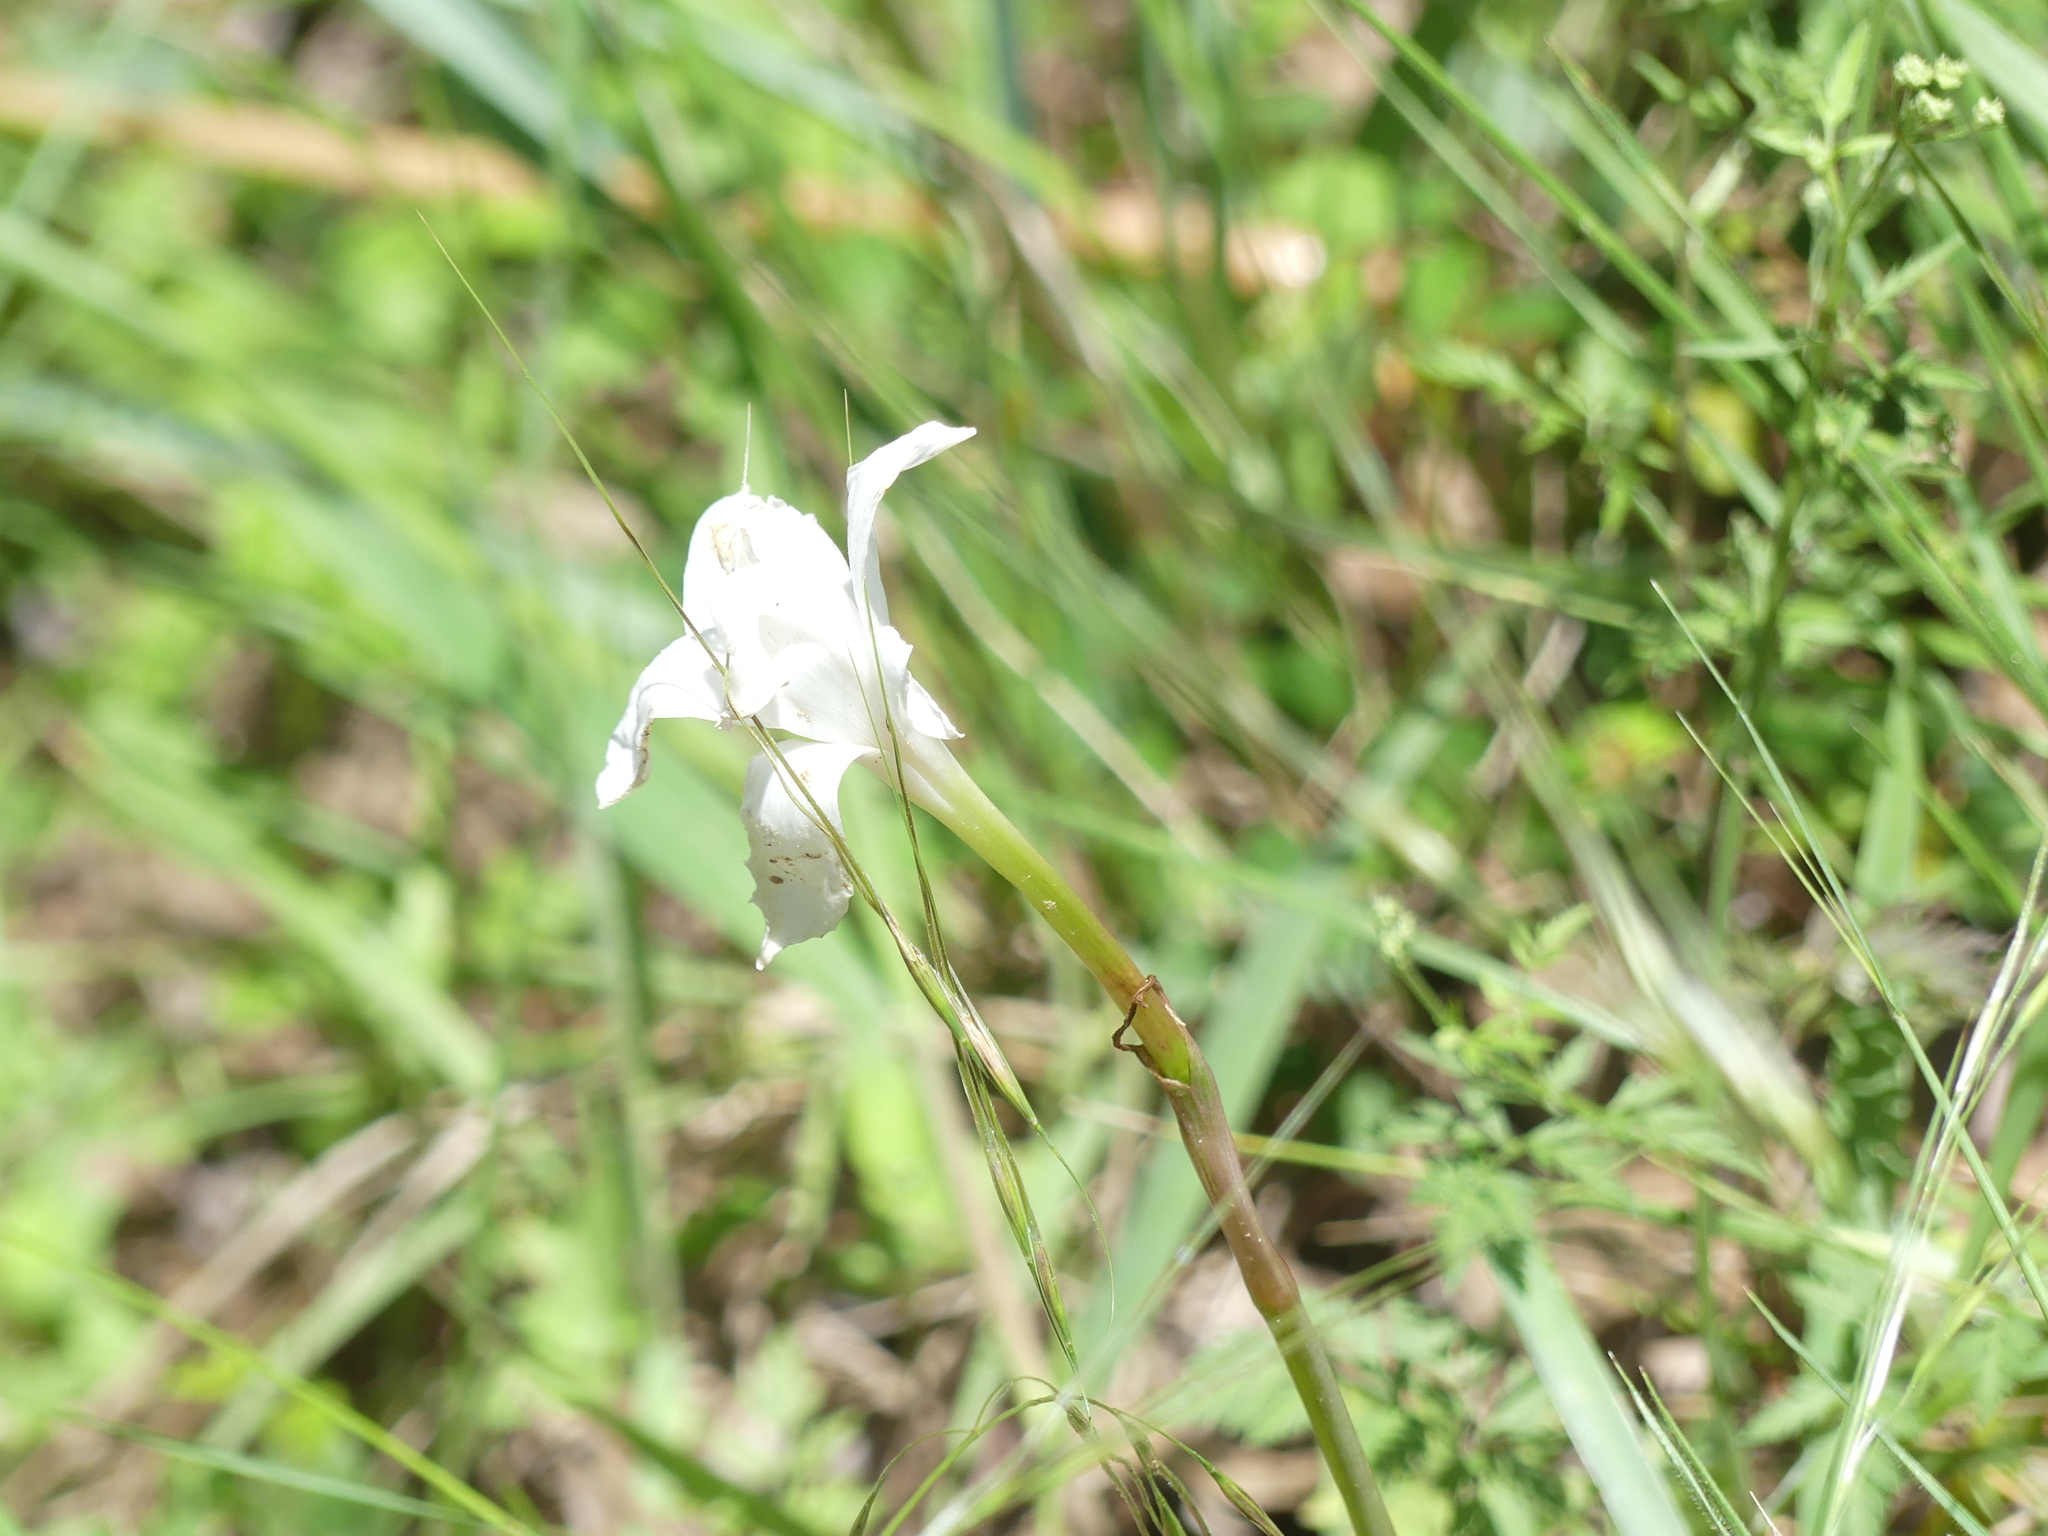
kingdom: Plantae
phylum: Tracheophyta
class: Liliopsida
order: Asparagales
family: Amaryllidaceae
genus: Zephyranthes
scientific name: Zephyranthes drummondii
